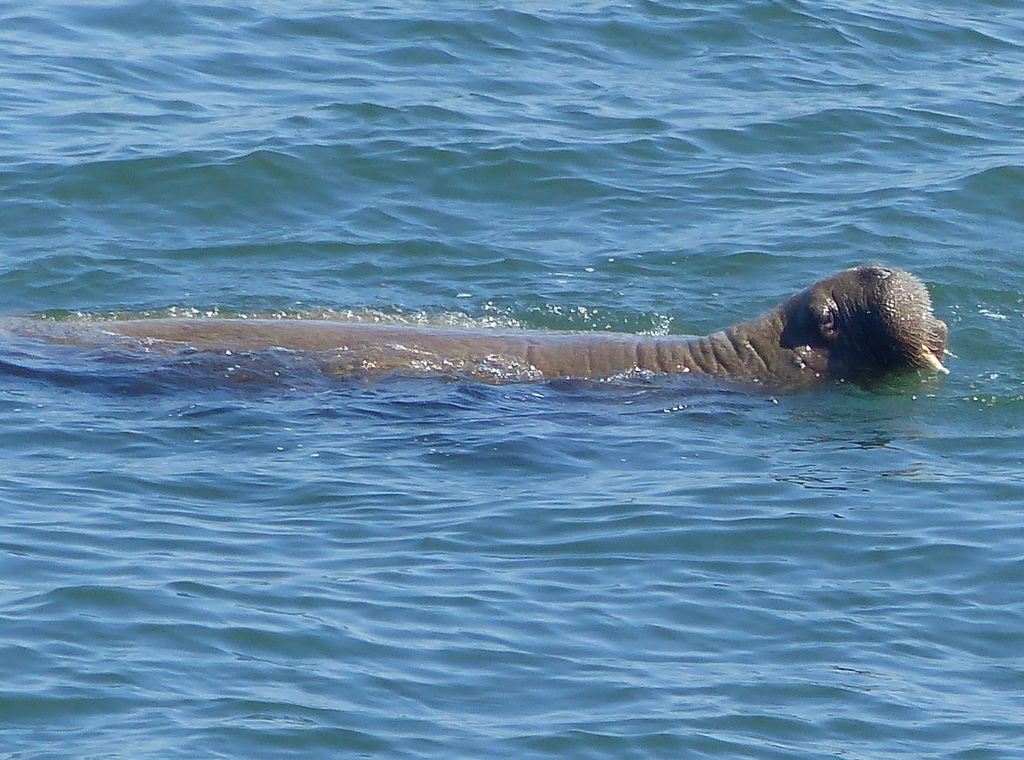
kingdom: Animalia
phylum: Chordata
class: Mammalia
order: Carnivora
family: Odobenidae
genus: Odobenus
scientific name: Odobenus rosmarus
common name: Walrus
